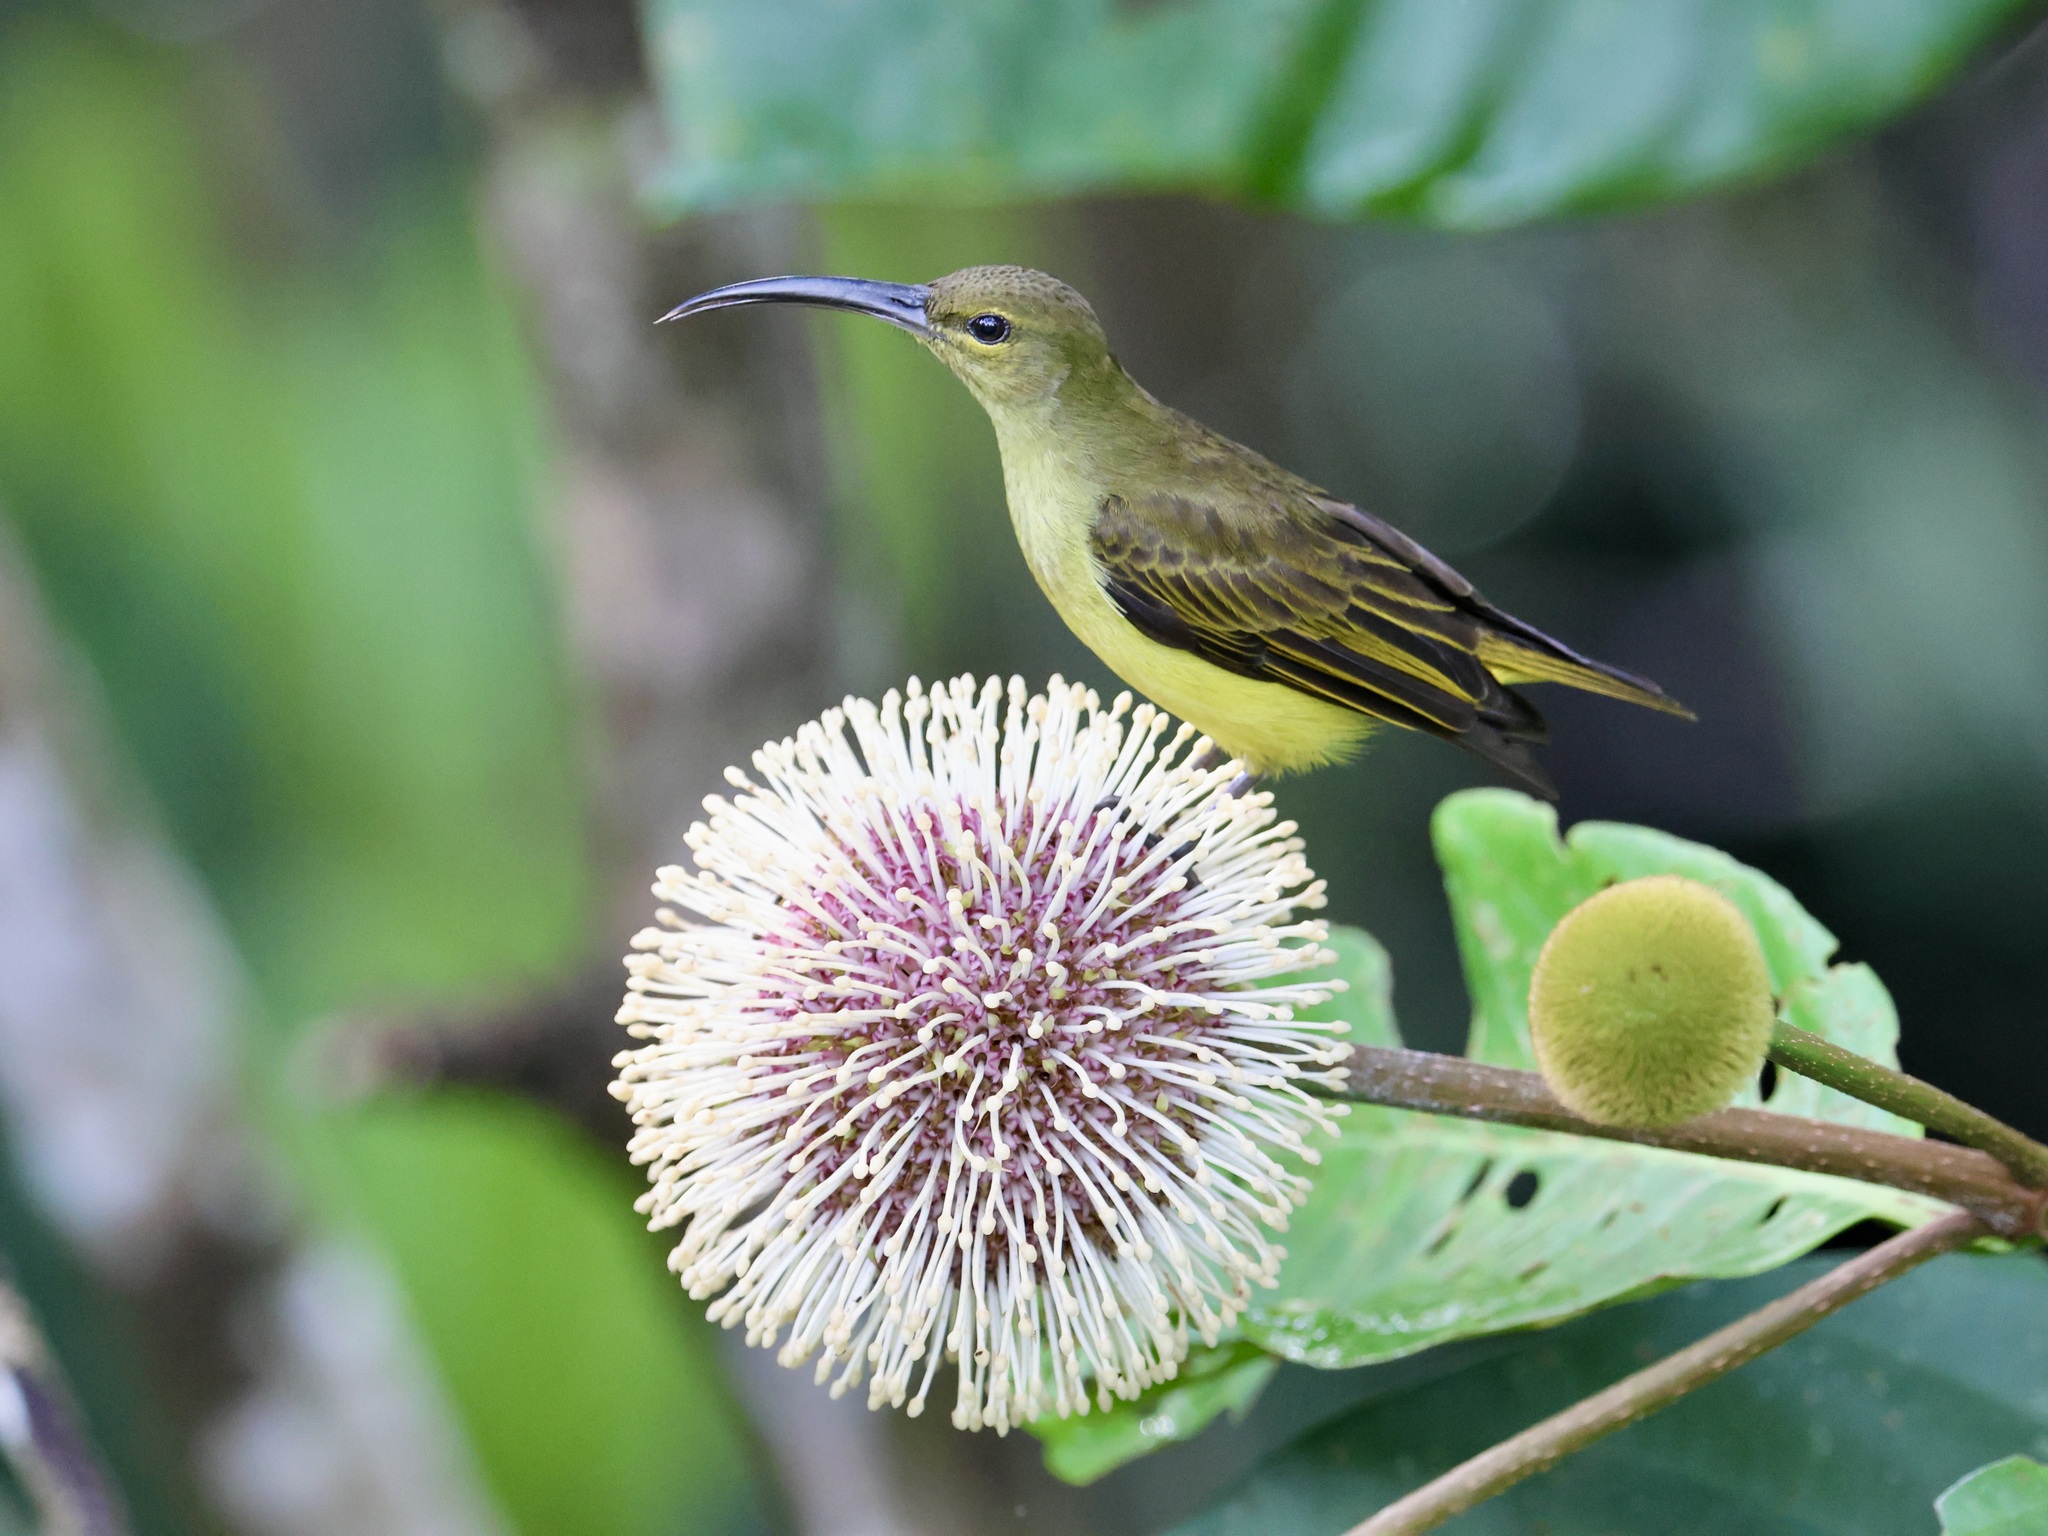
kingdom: Animalia
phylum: Chordata
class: Aves
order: Passeriformes
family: Nectariniidae
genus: Arachnothera
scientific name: Arachnothera crassirostris
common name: Thick-billed spiderhunter
